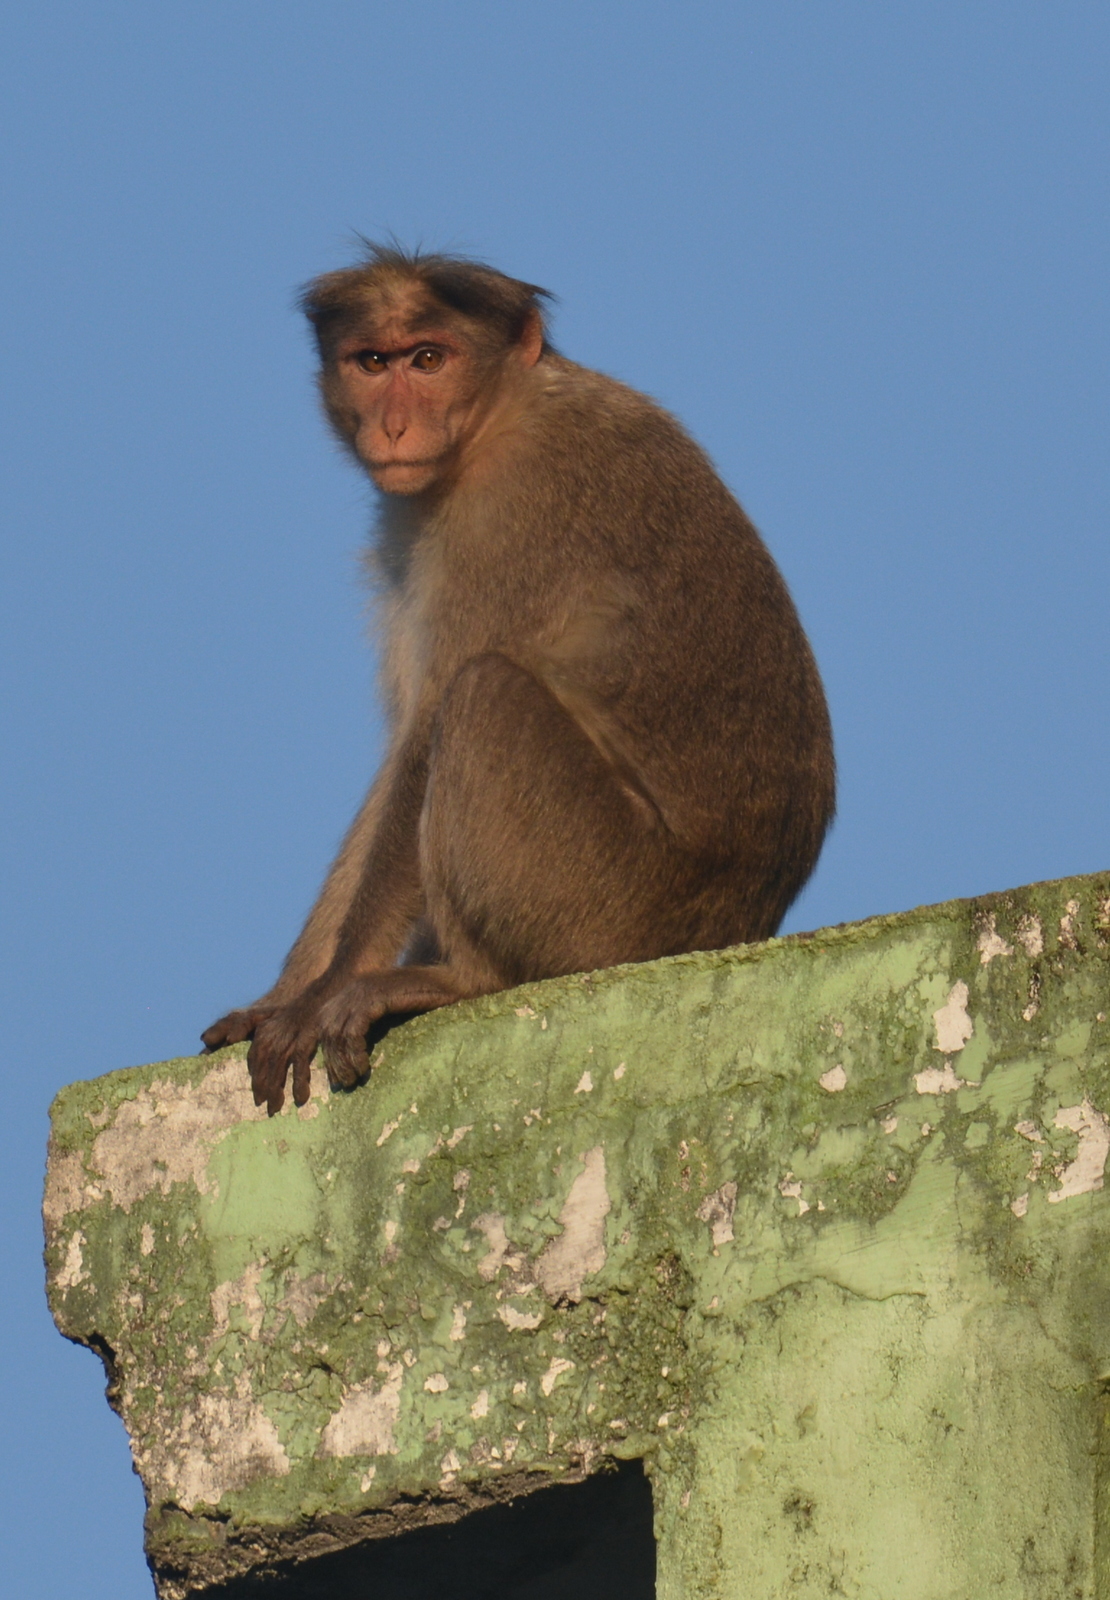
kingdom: Animalia
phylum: Chordata
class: Mammalia
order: Primates
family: Cercopithecidae
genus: Macaca
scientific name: Macaca radiata
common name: Bonnet macaque
